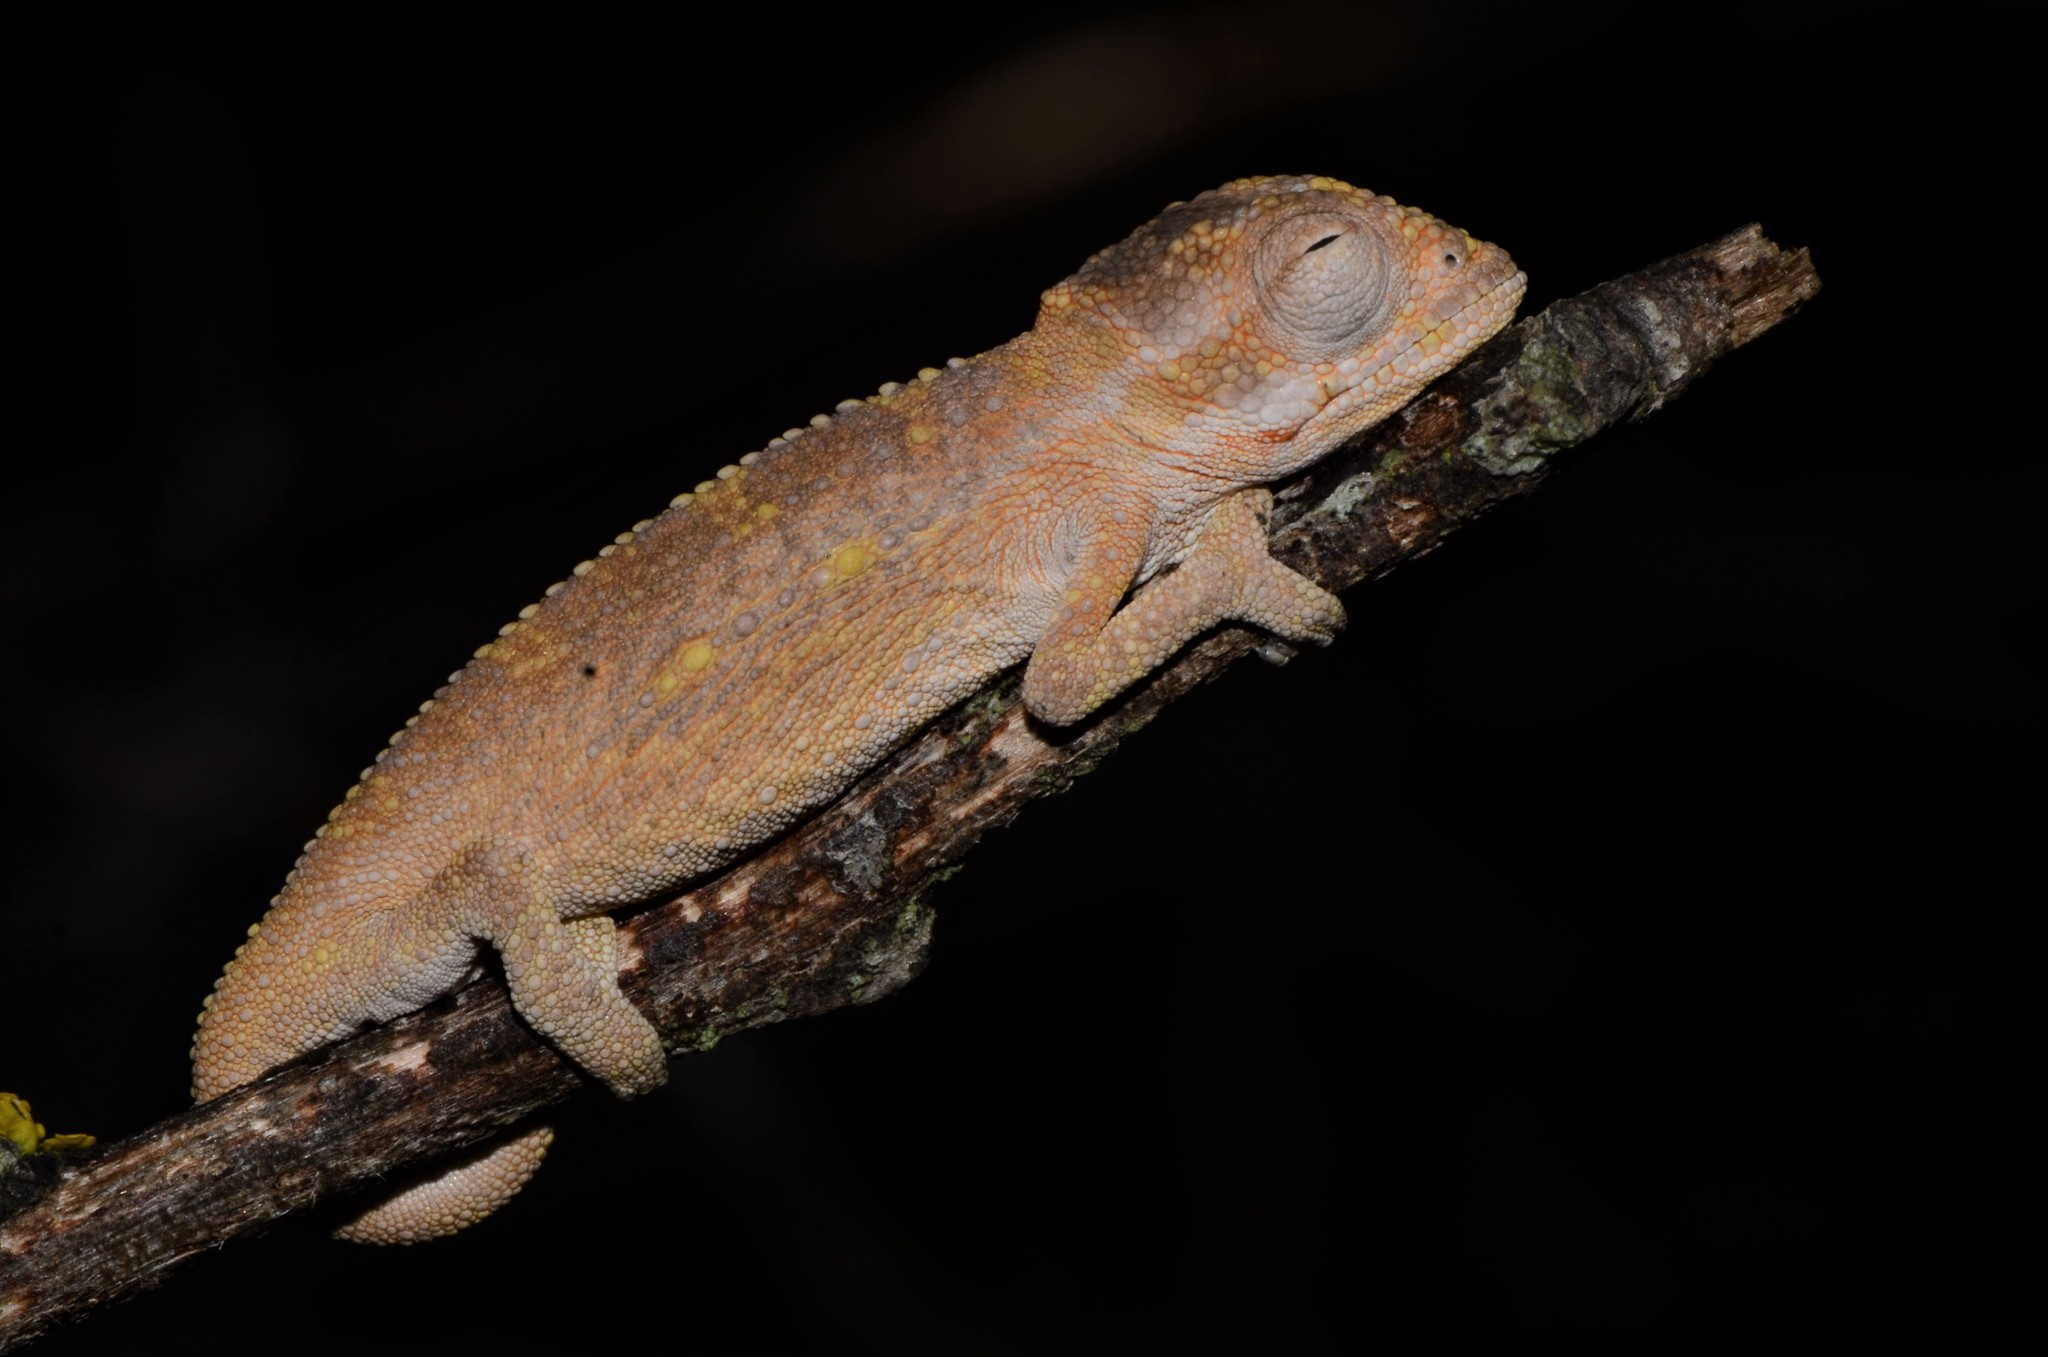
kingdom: Animalia
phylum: Chordata
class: Squamata
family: Chamaeleonidae
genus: Bradypodion
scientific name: Bradypodion pumilum
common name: Cape dwarf chameleon
